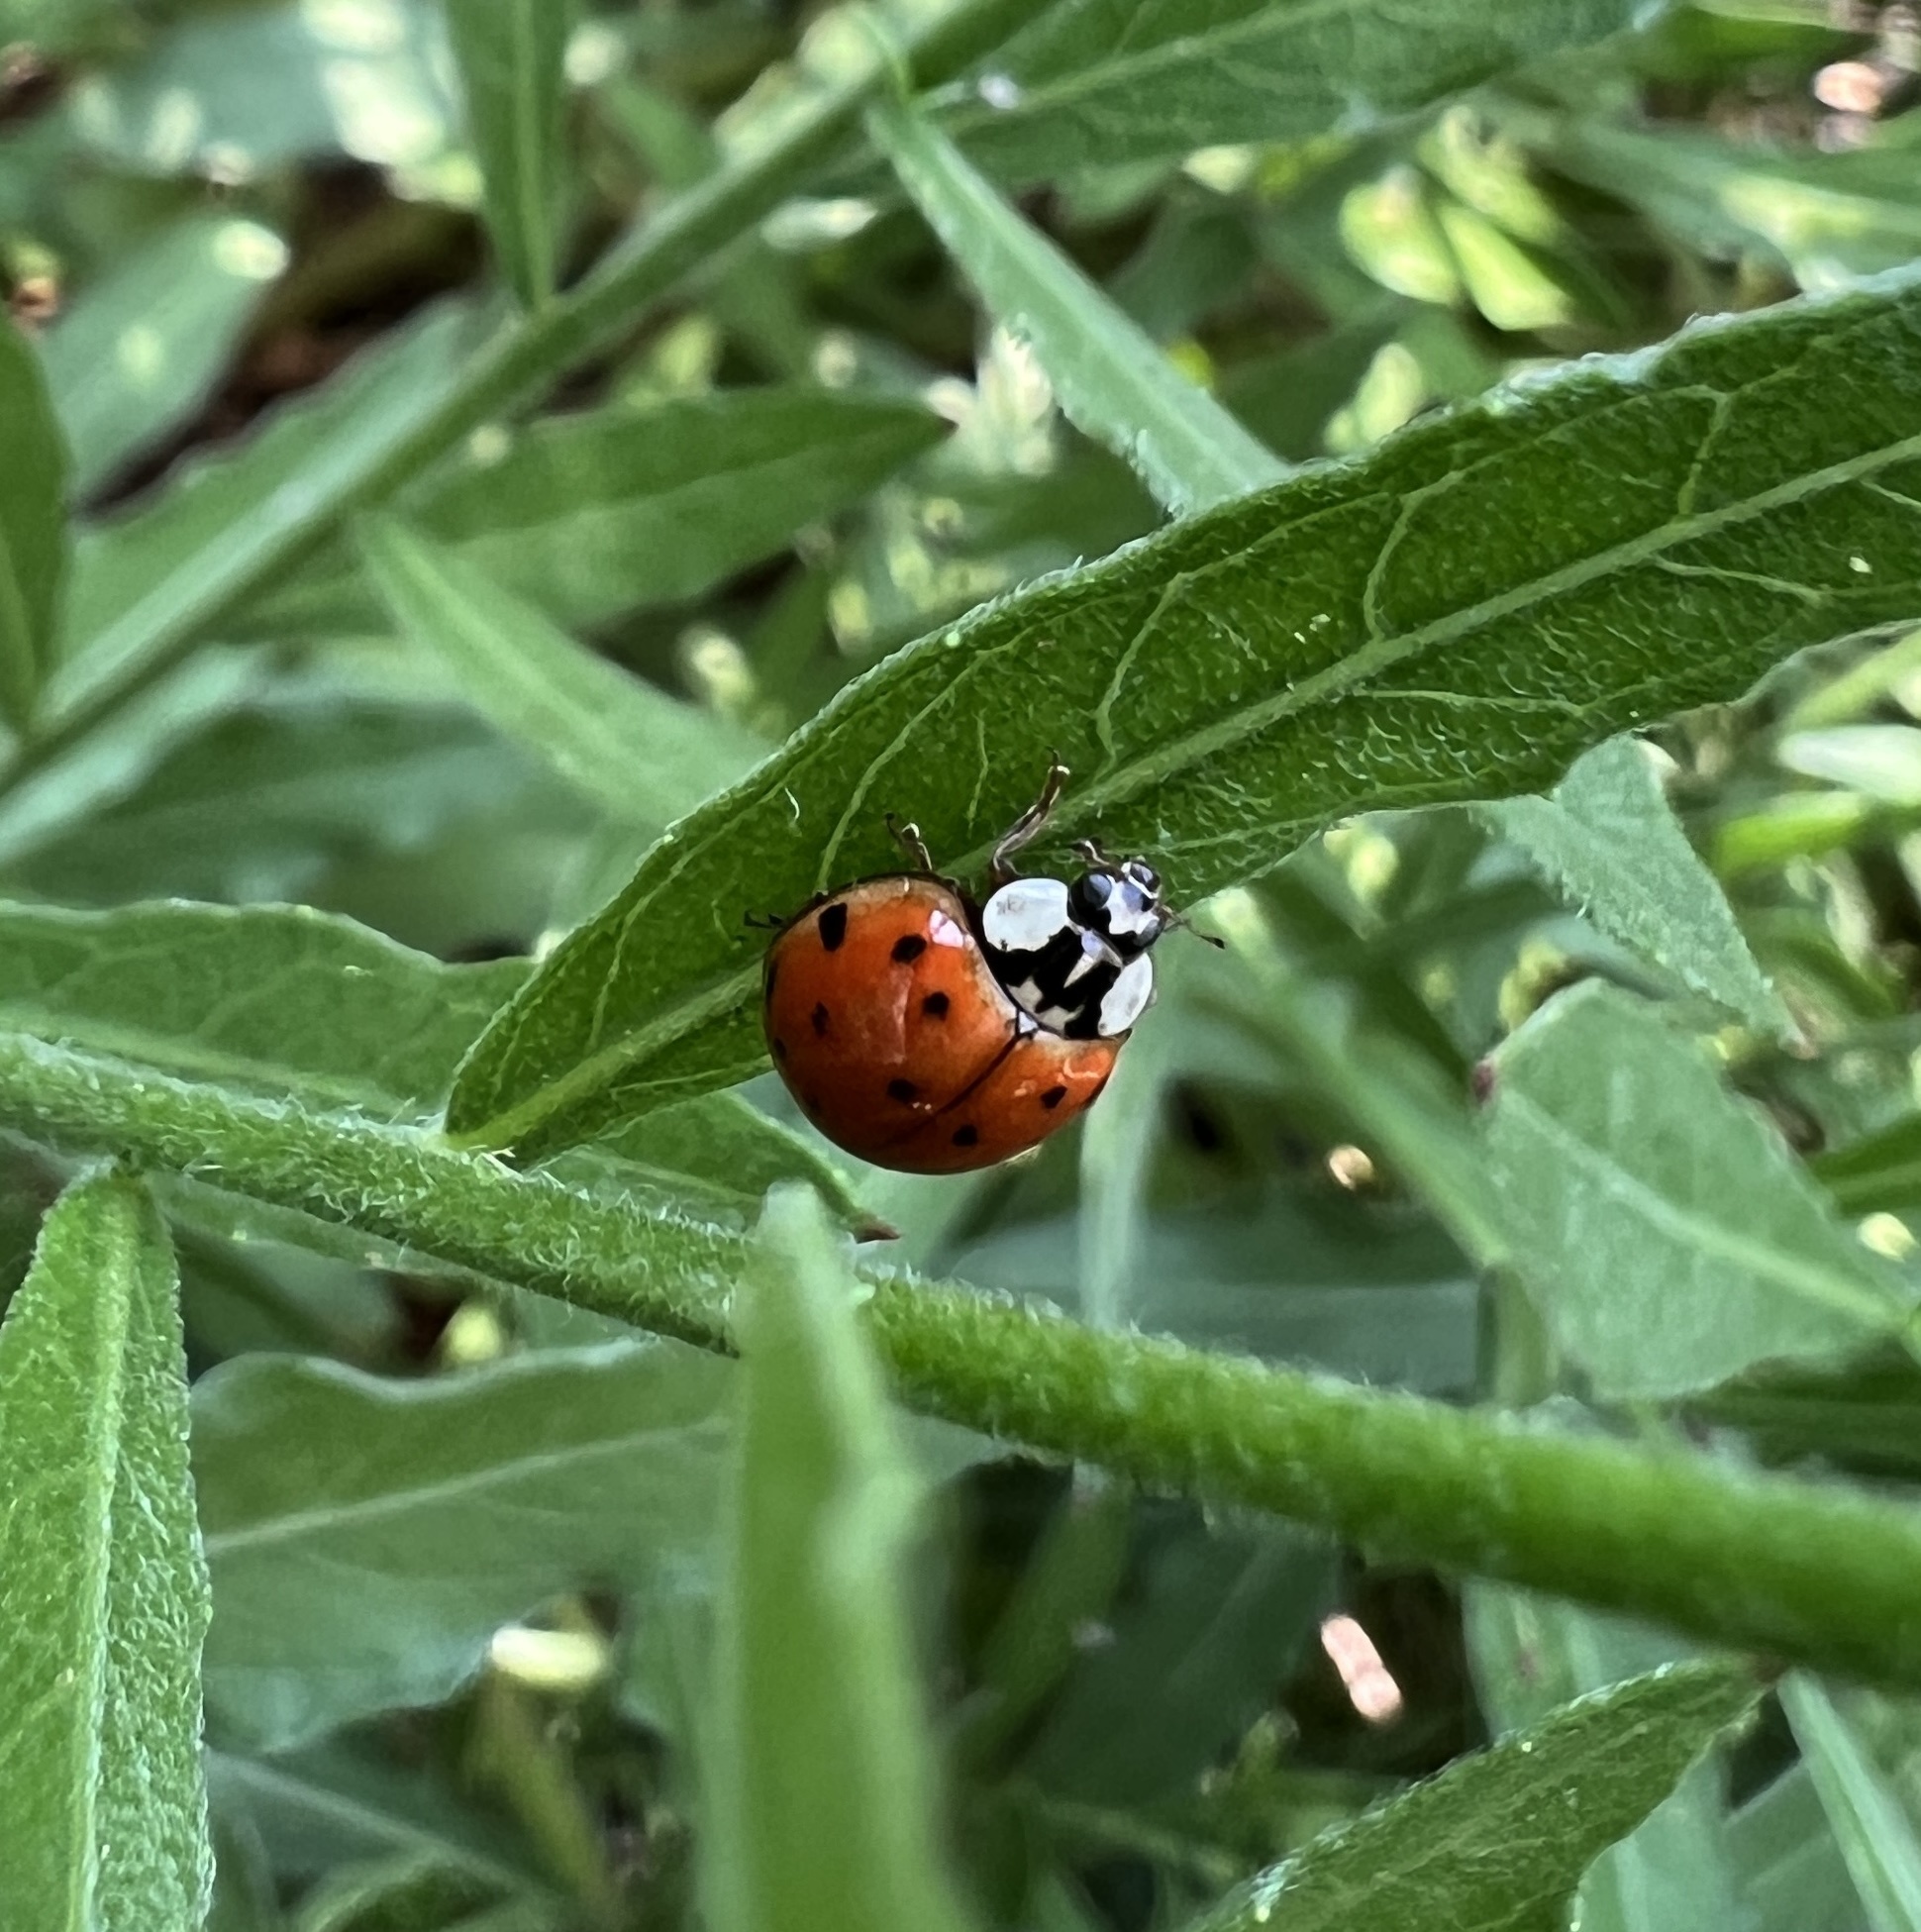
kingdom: Animalia
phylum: Arthropoda
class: Insecta
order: Coleoptera
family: Coccinellidae
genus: Harmonia
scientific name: Harmonia axyridis
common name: Harlequin ladybird
